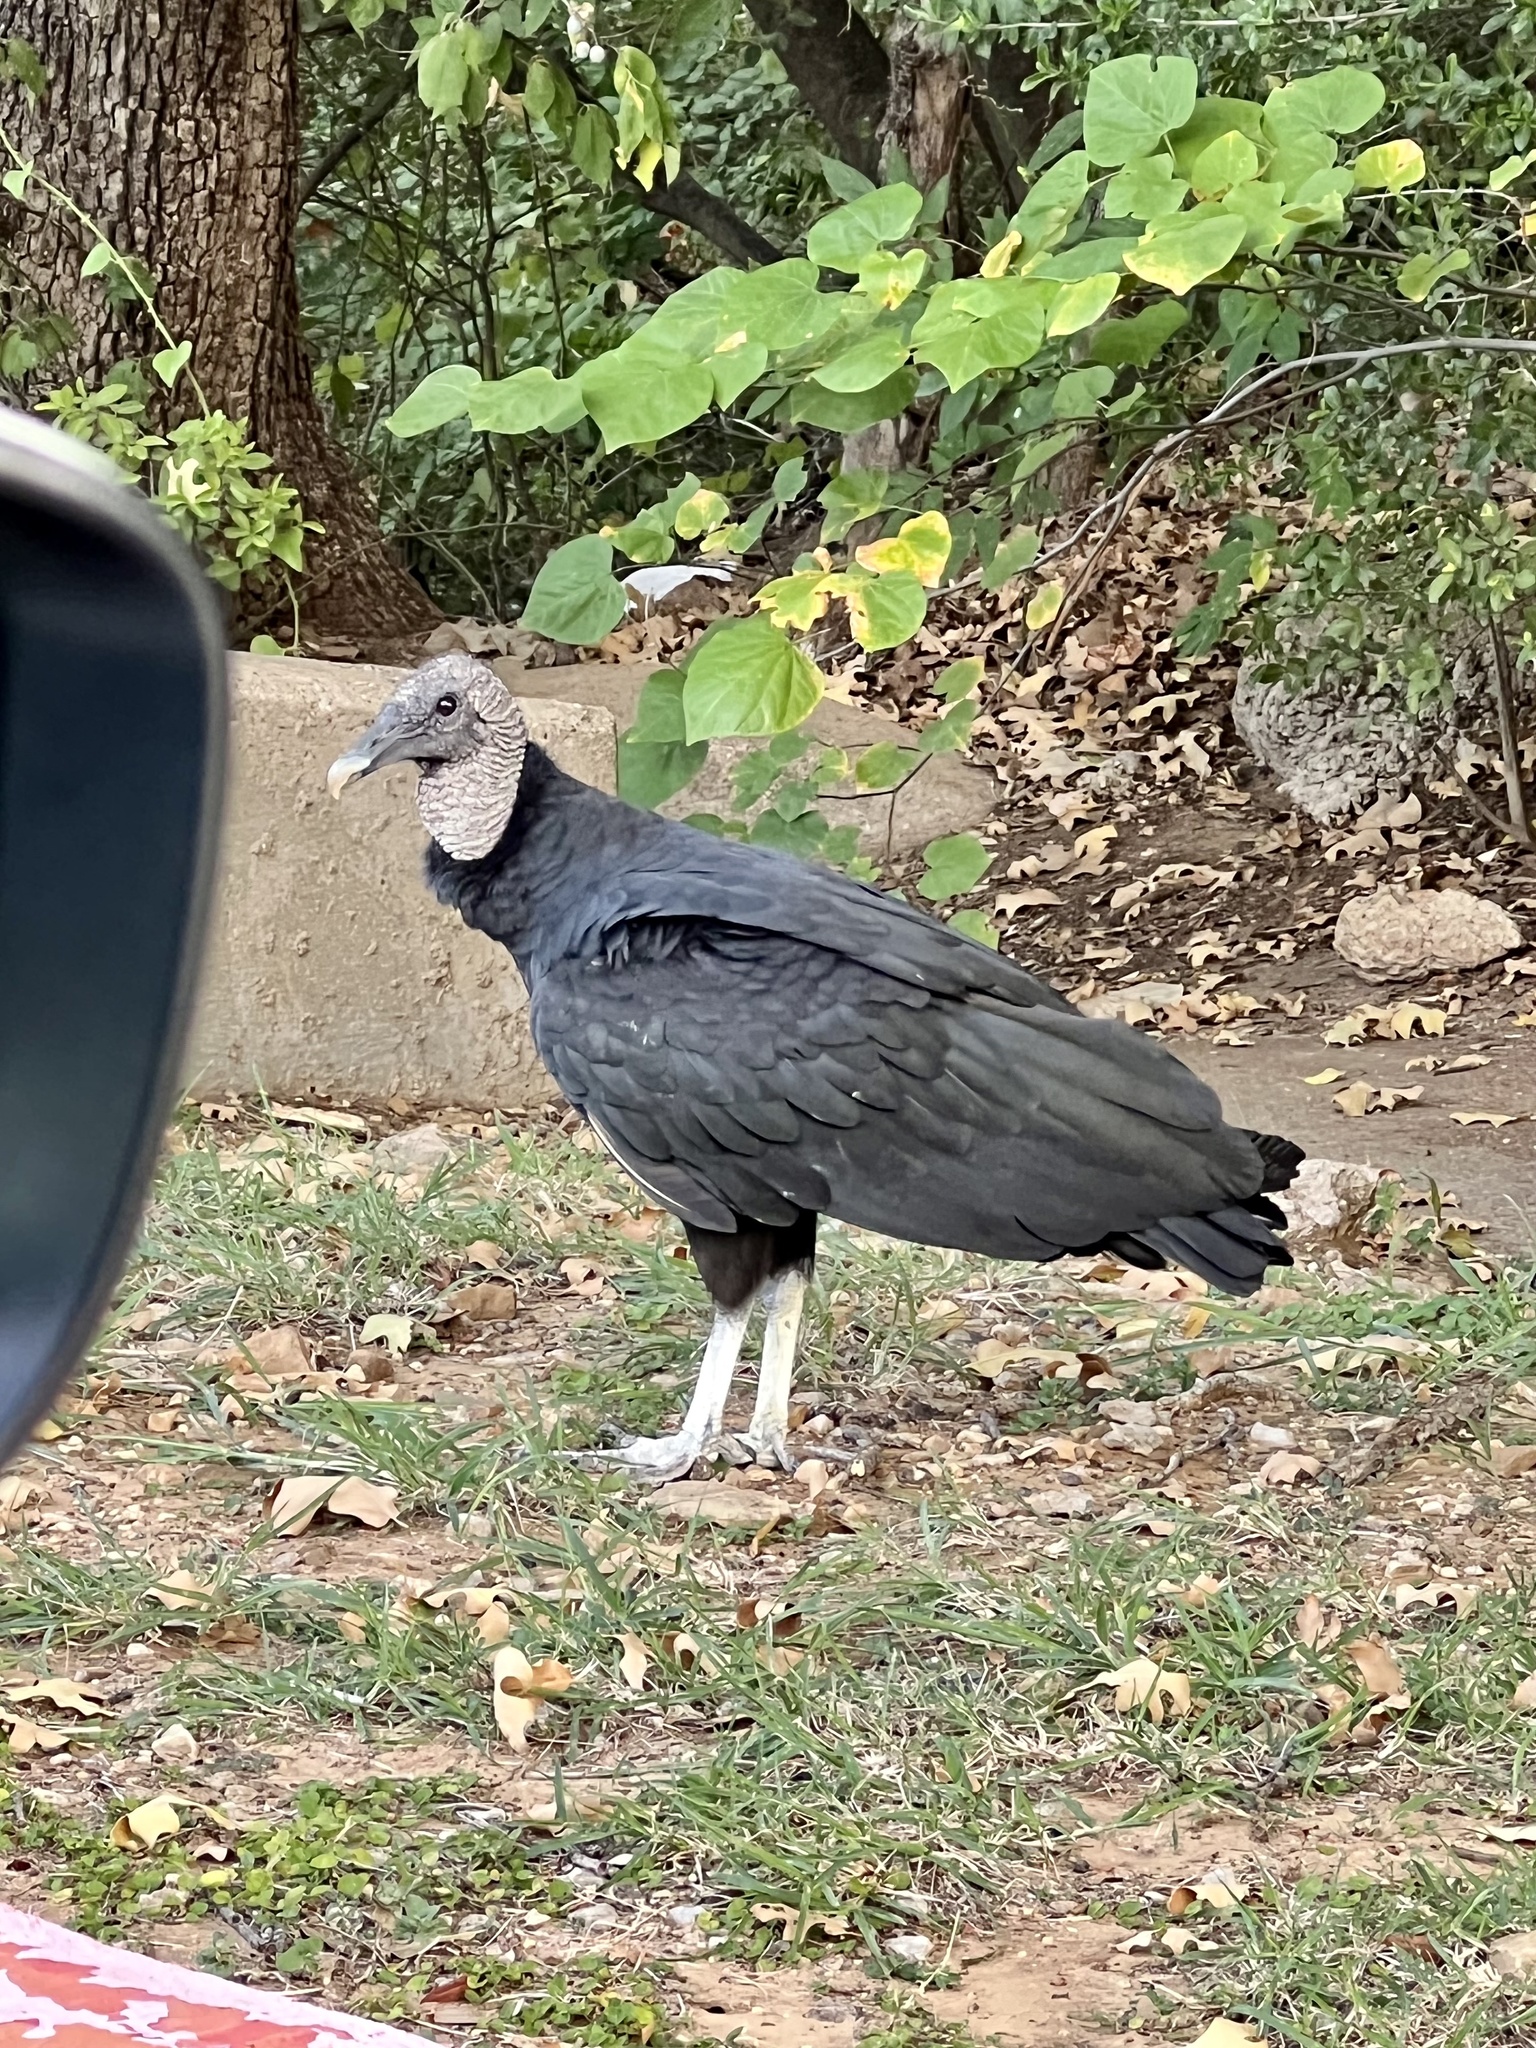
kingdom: Animalia
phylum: Chordata
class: Aves
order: Accipitriformes
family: Cathartidae
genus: Coragyps
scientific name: Coragyps atratus
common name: Black vulture
